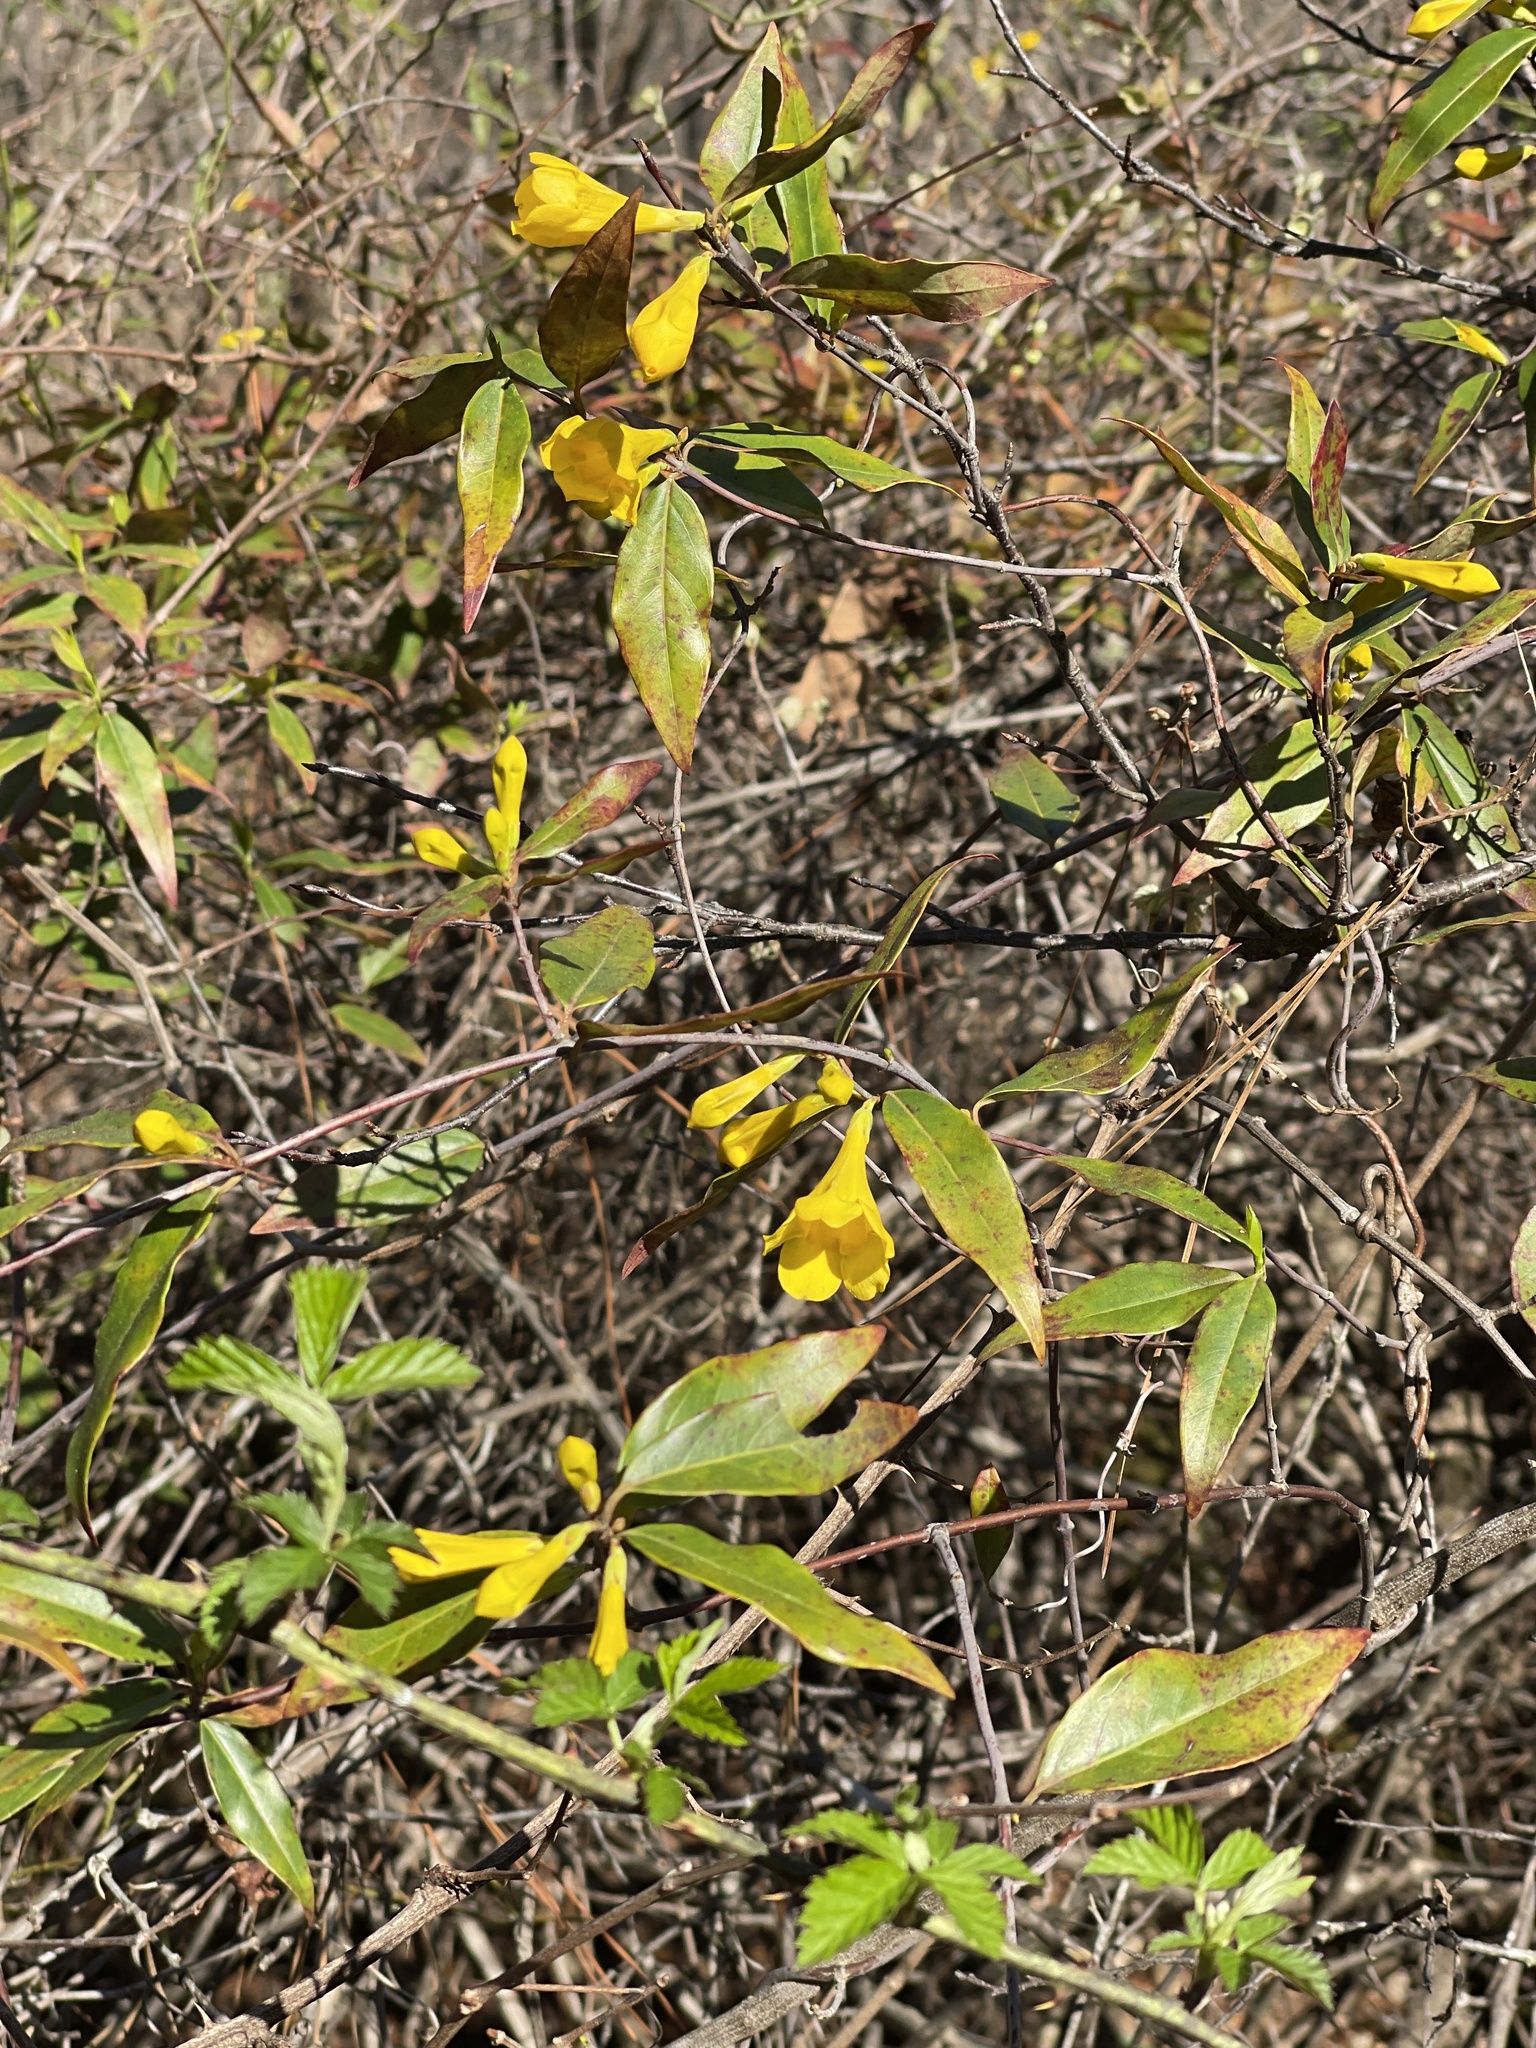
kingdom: Plantae
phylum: Tracheophyta
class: Magnoliopsida
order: Gentianales
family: Gelsemiaceae
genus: Gelsemium
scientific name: Gelsemium sempervirens
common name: Carolina-jasmine
